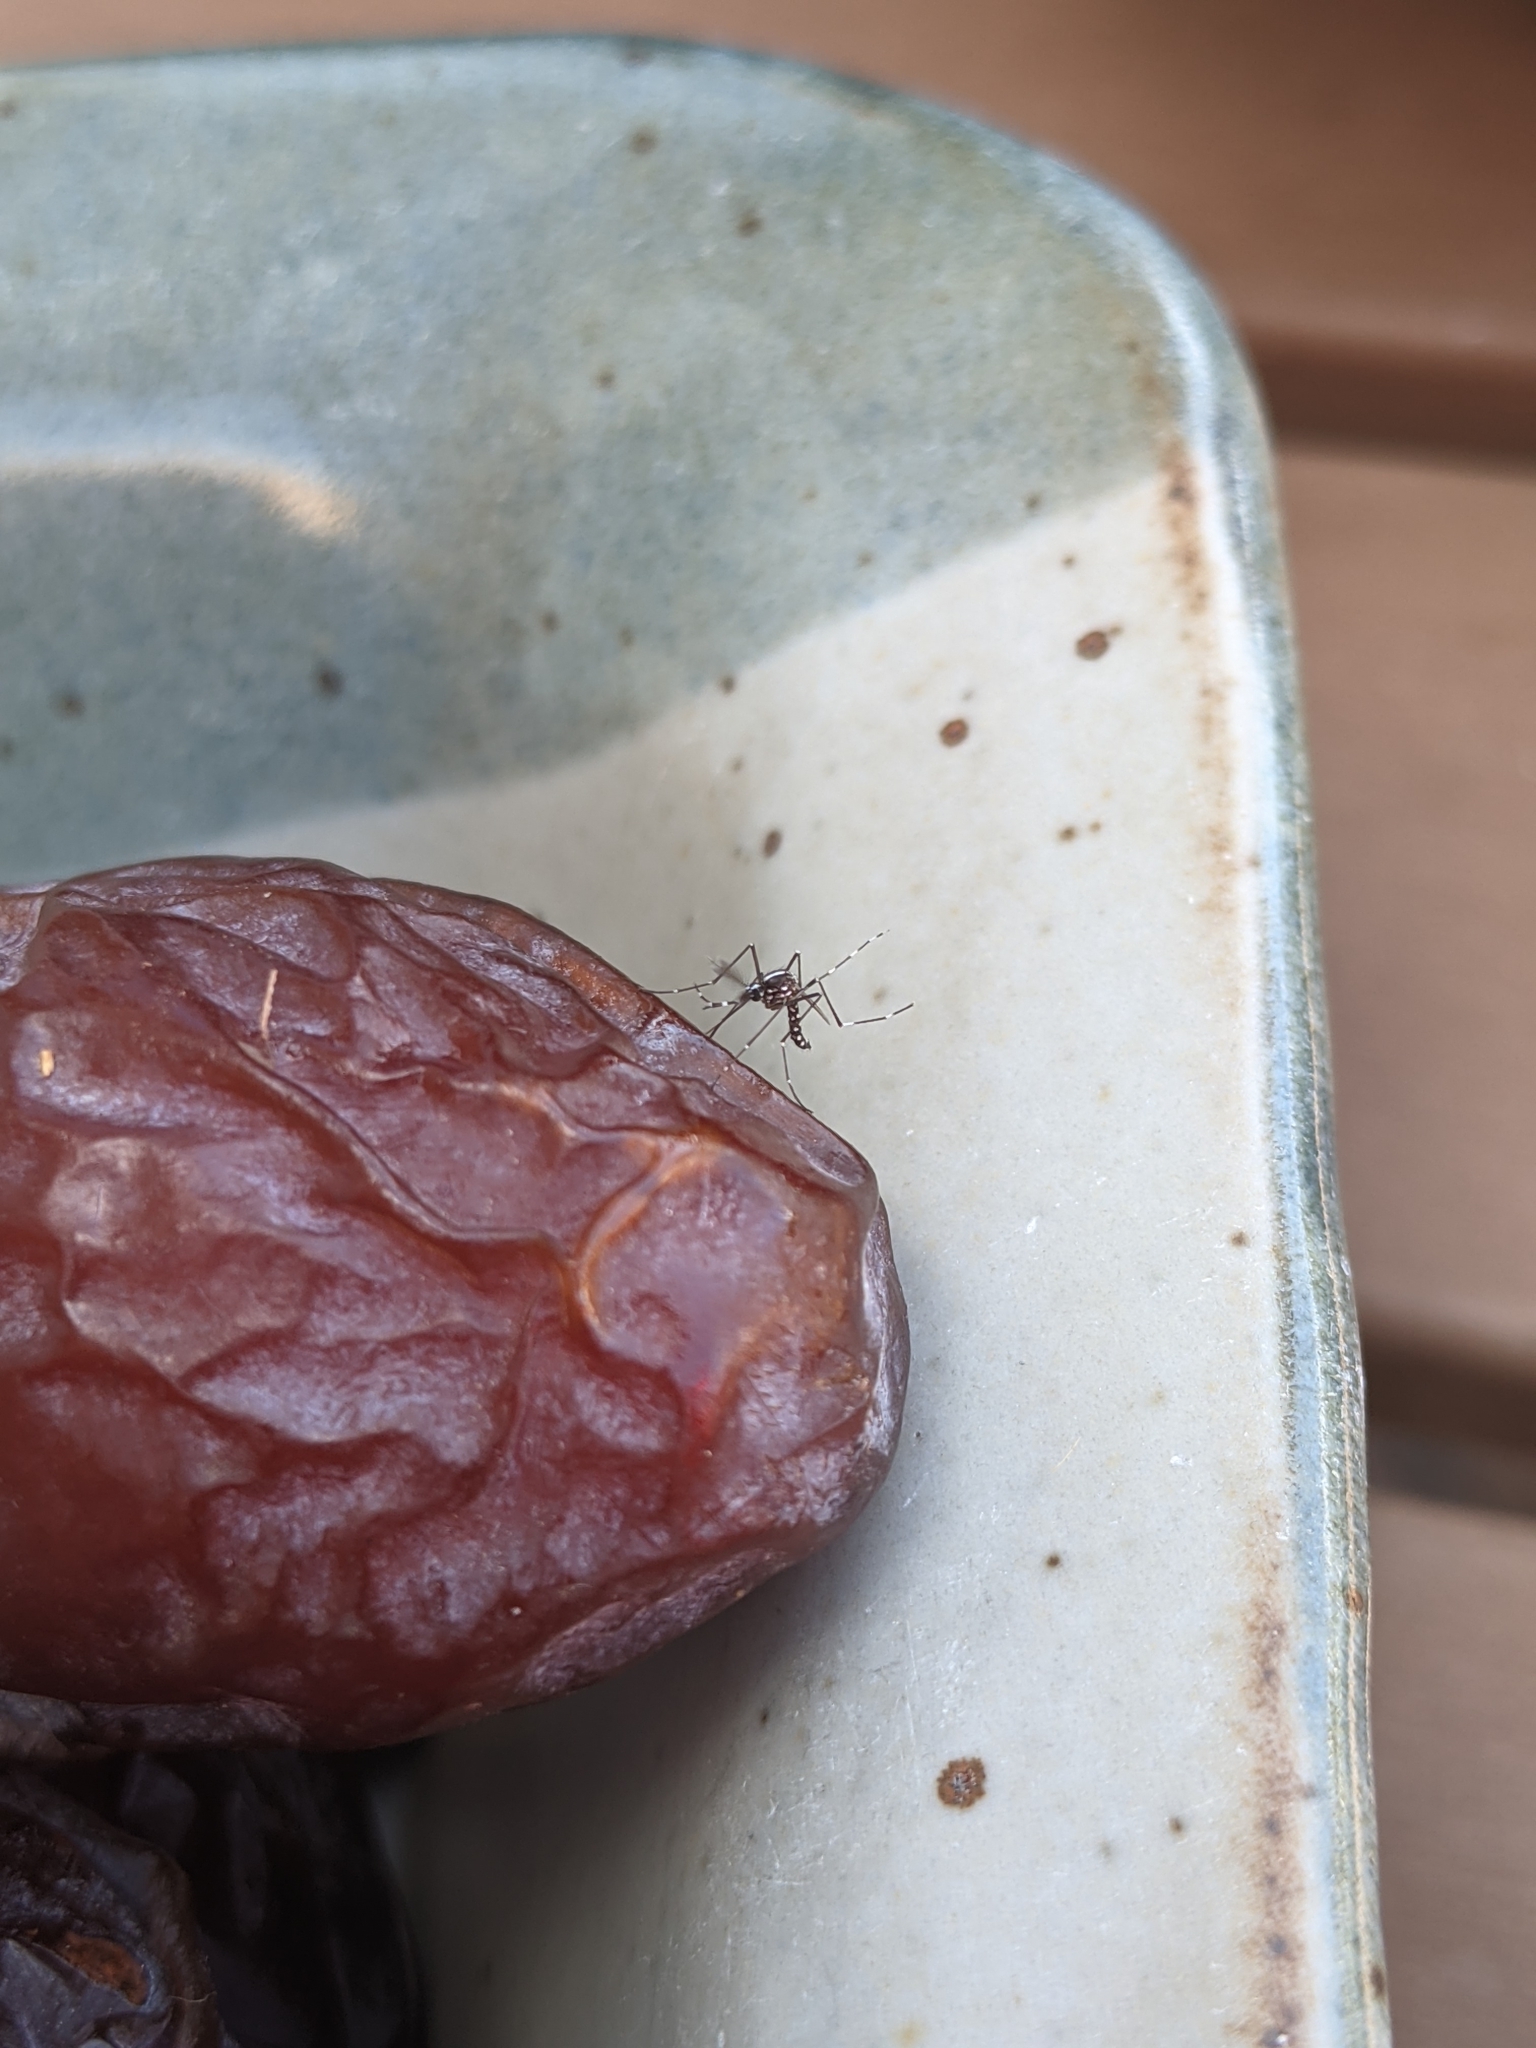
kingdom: Animalia
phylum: Arthropoda
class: Insecta
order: Diptera
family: Culicidae
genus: Aedes
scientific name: Aedes albopictus
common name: Tiger mosquito
